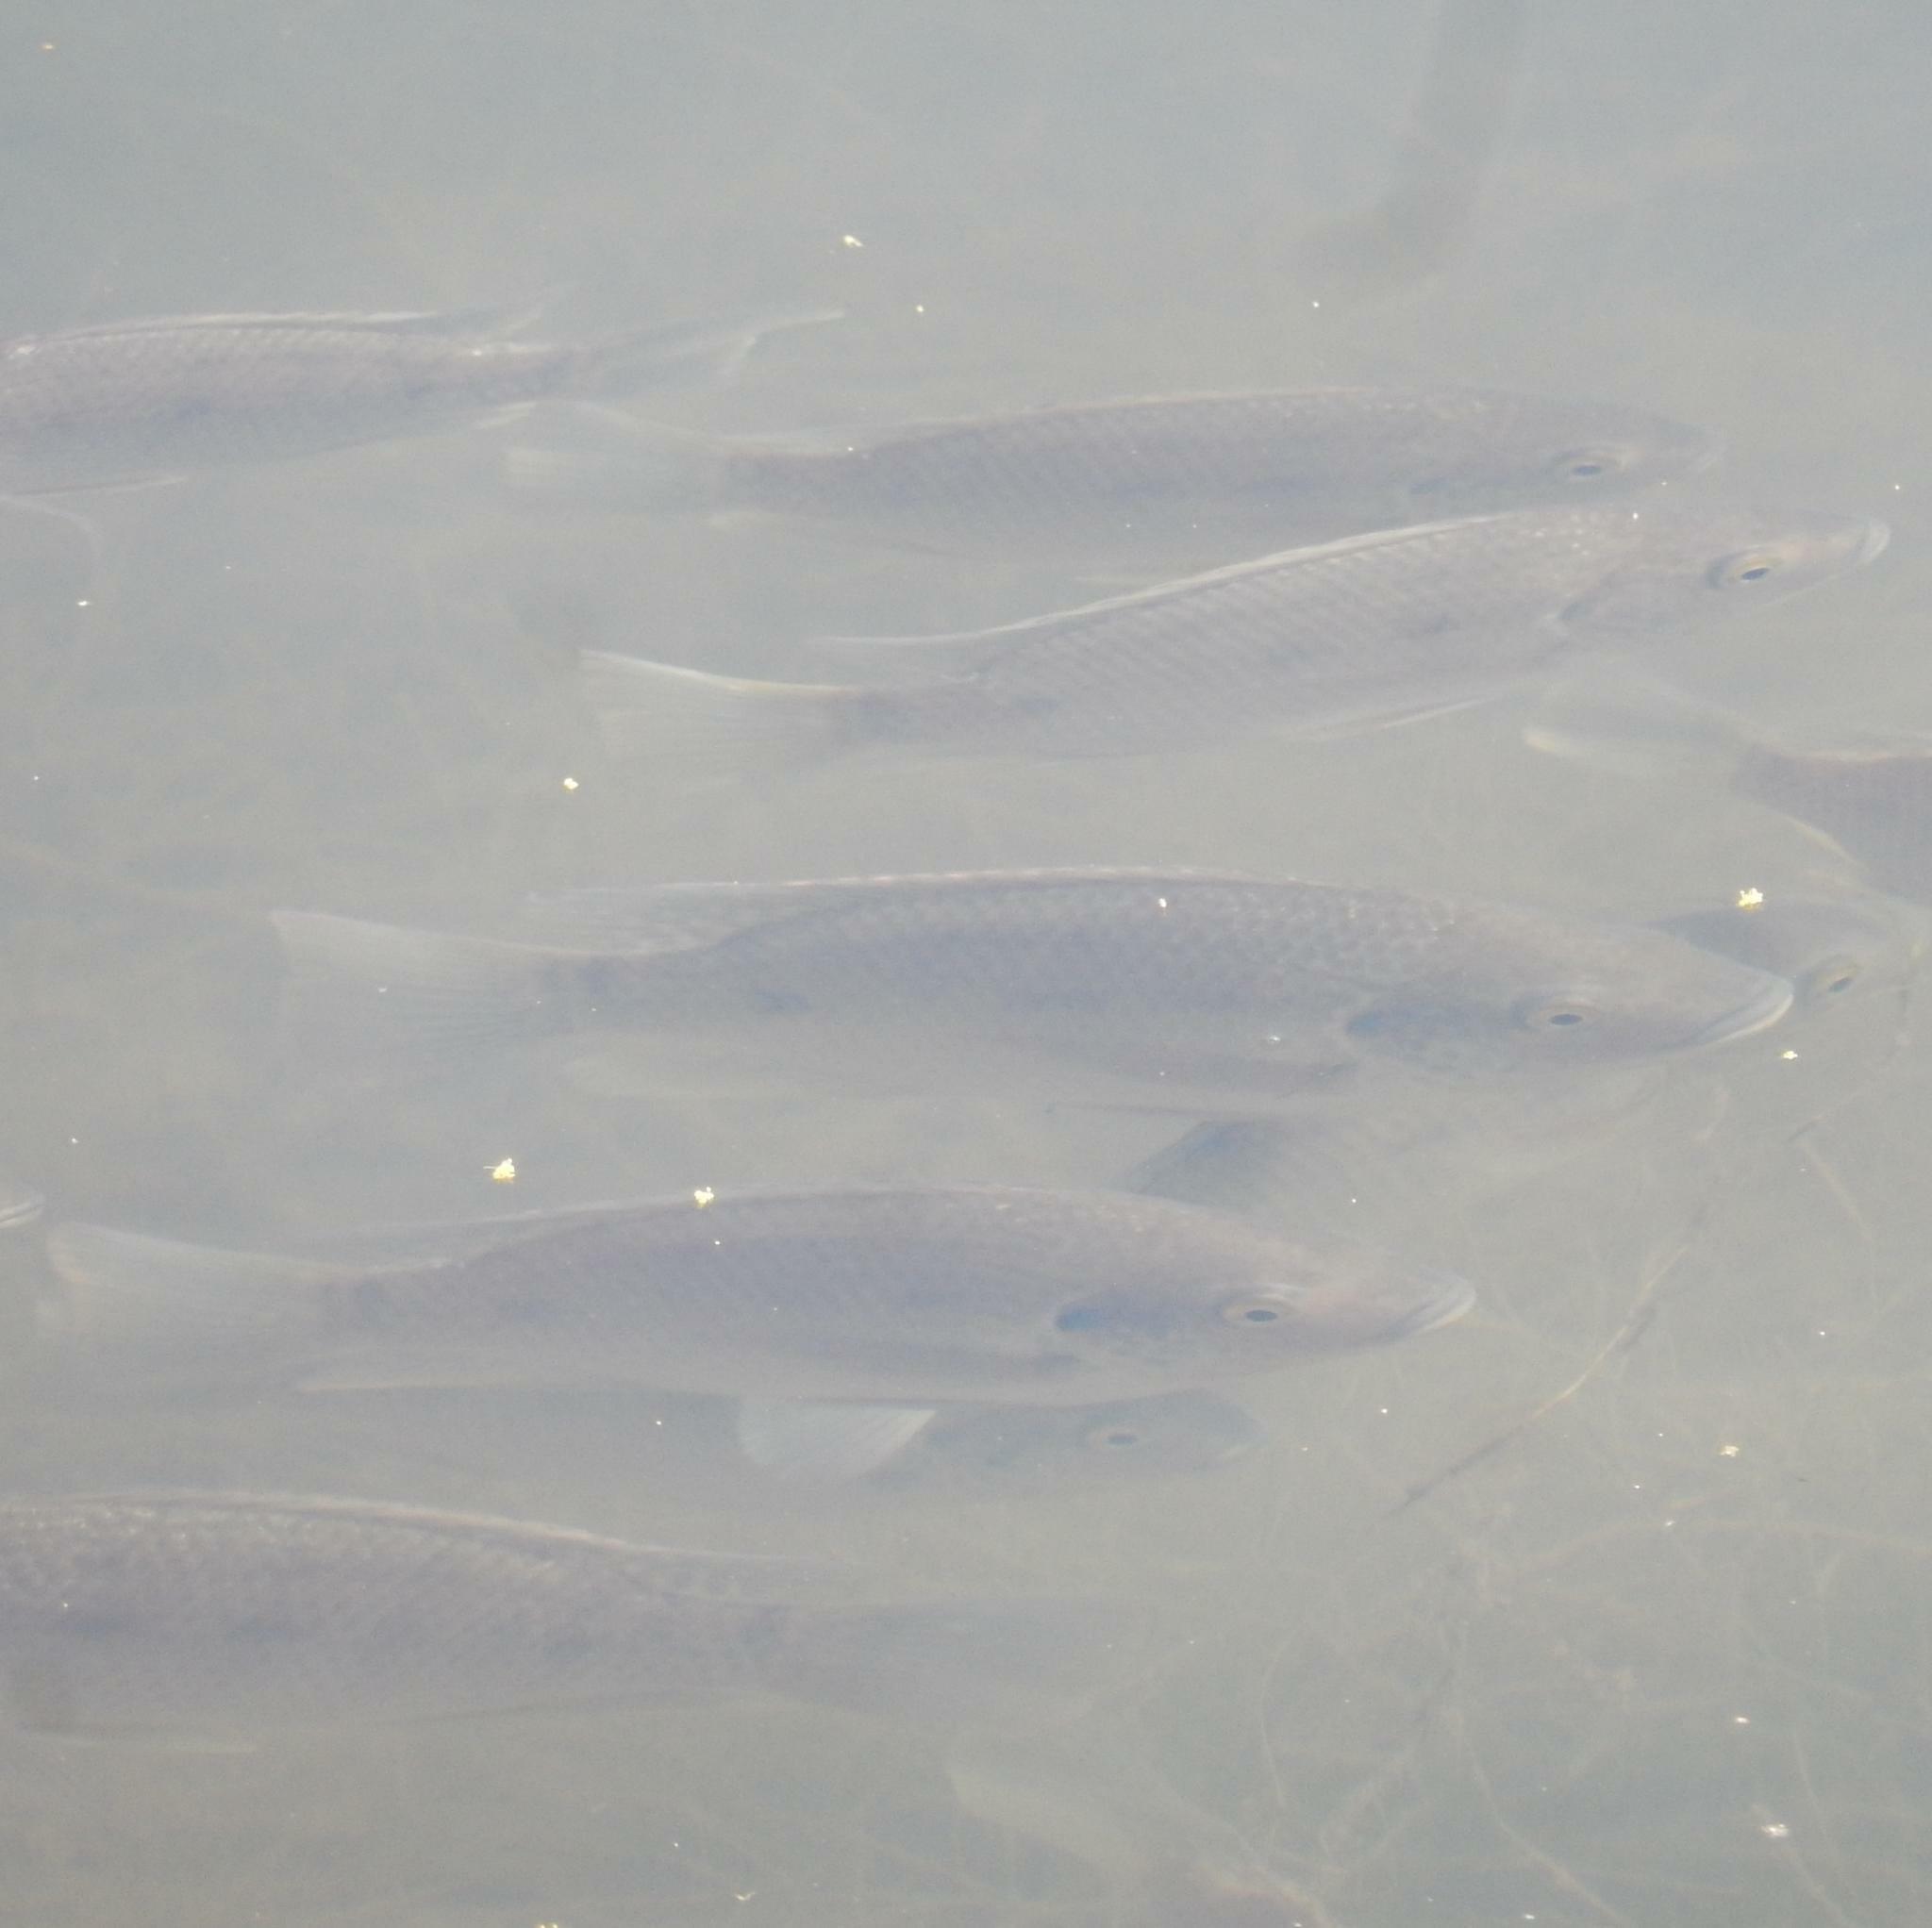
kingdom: Animalia
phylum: Chordata
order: Perciformes
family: Cichlidae
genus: Oreochromis
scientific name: Oreochromis mossambicus
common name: Mozambique tilapia
